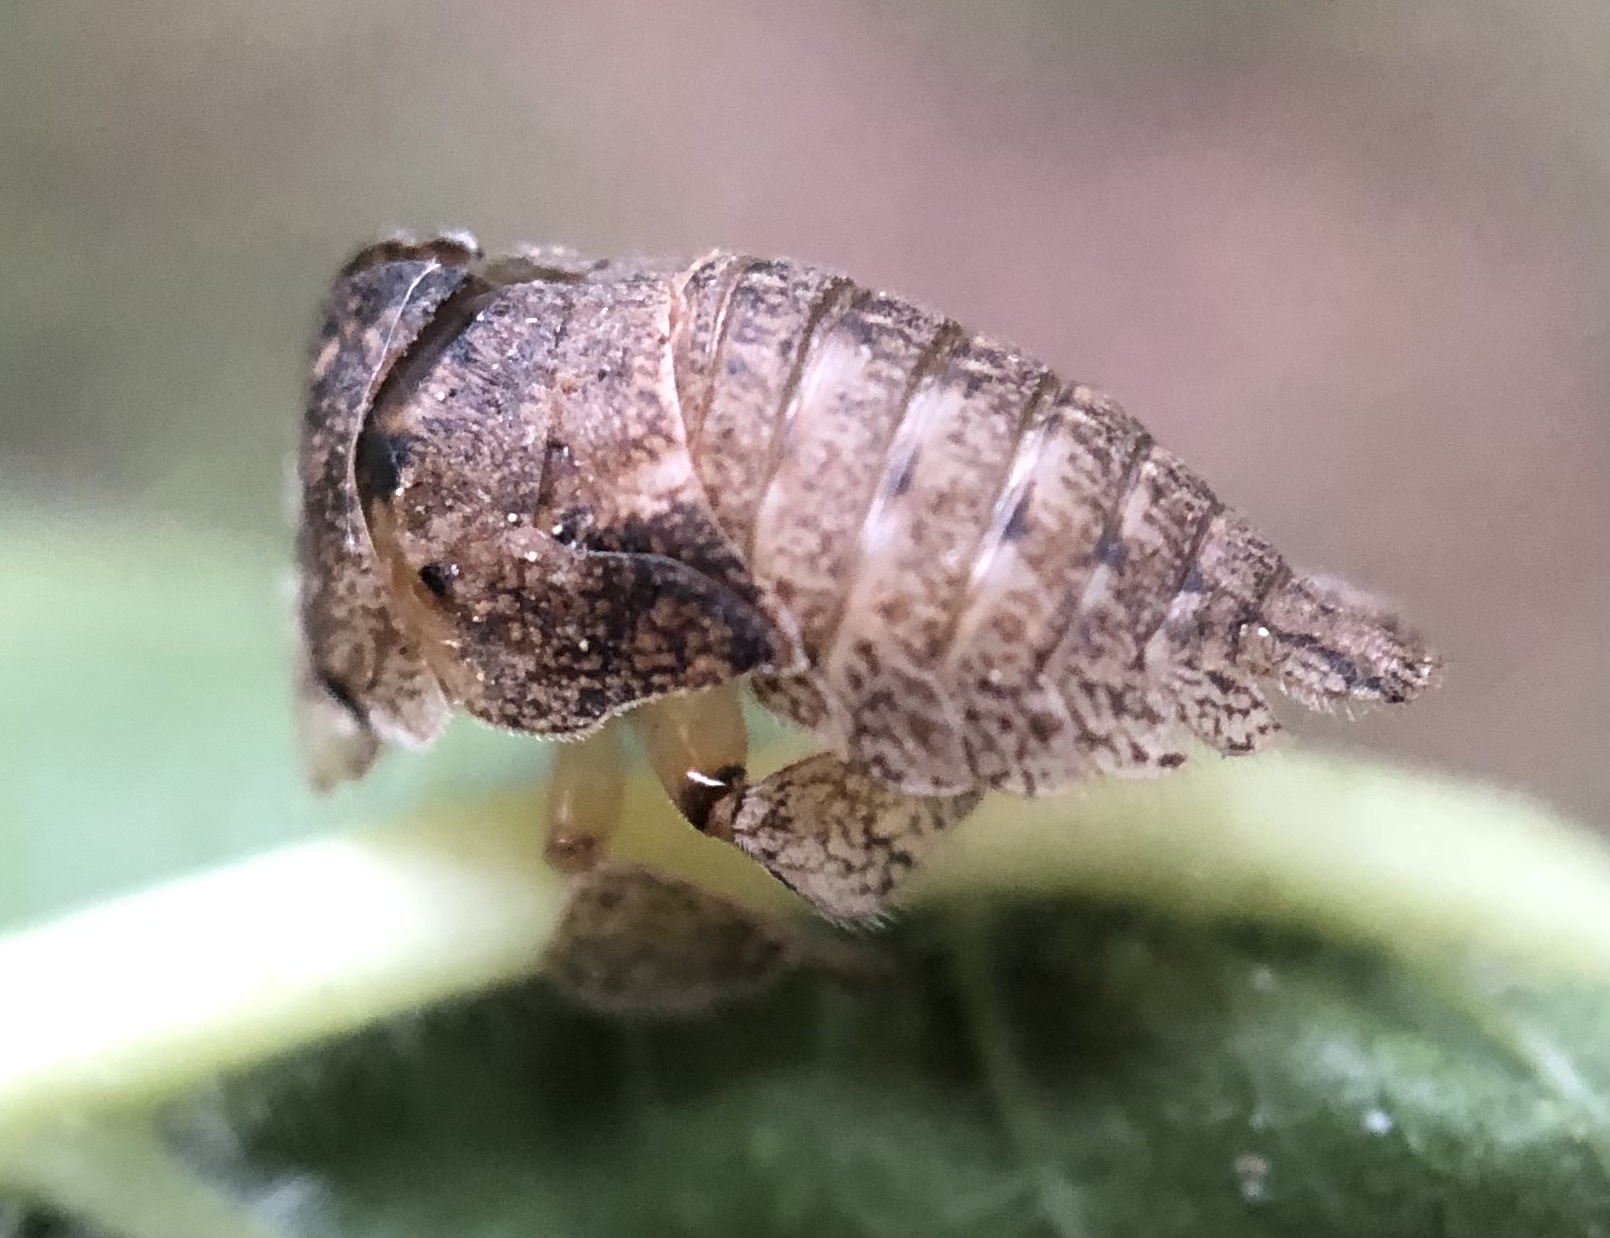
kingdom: Animalia
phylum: Arthropoda
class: Insecta
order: Hemiptera
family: Membracidae
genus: Hebetica
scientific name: Hebetica
